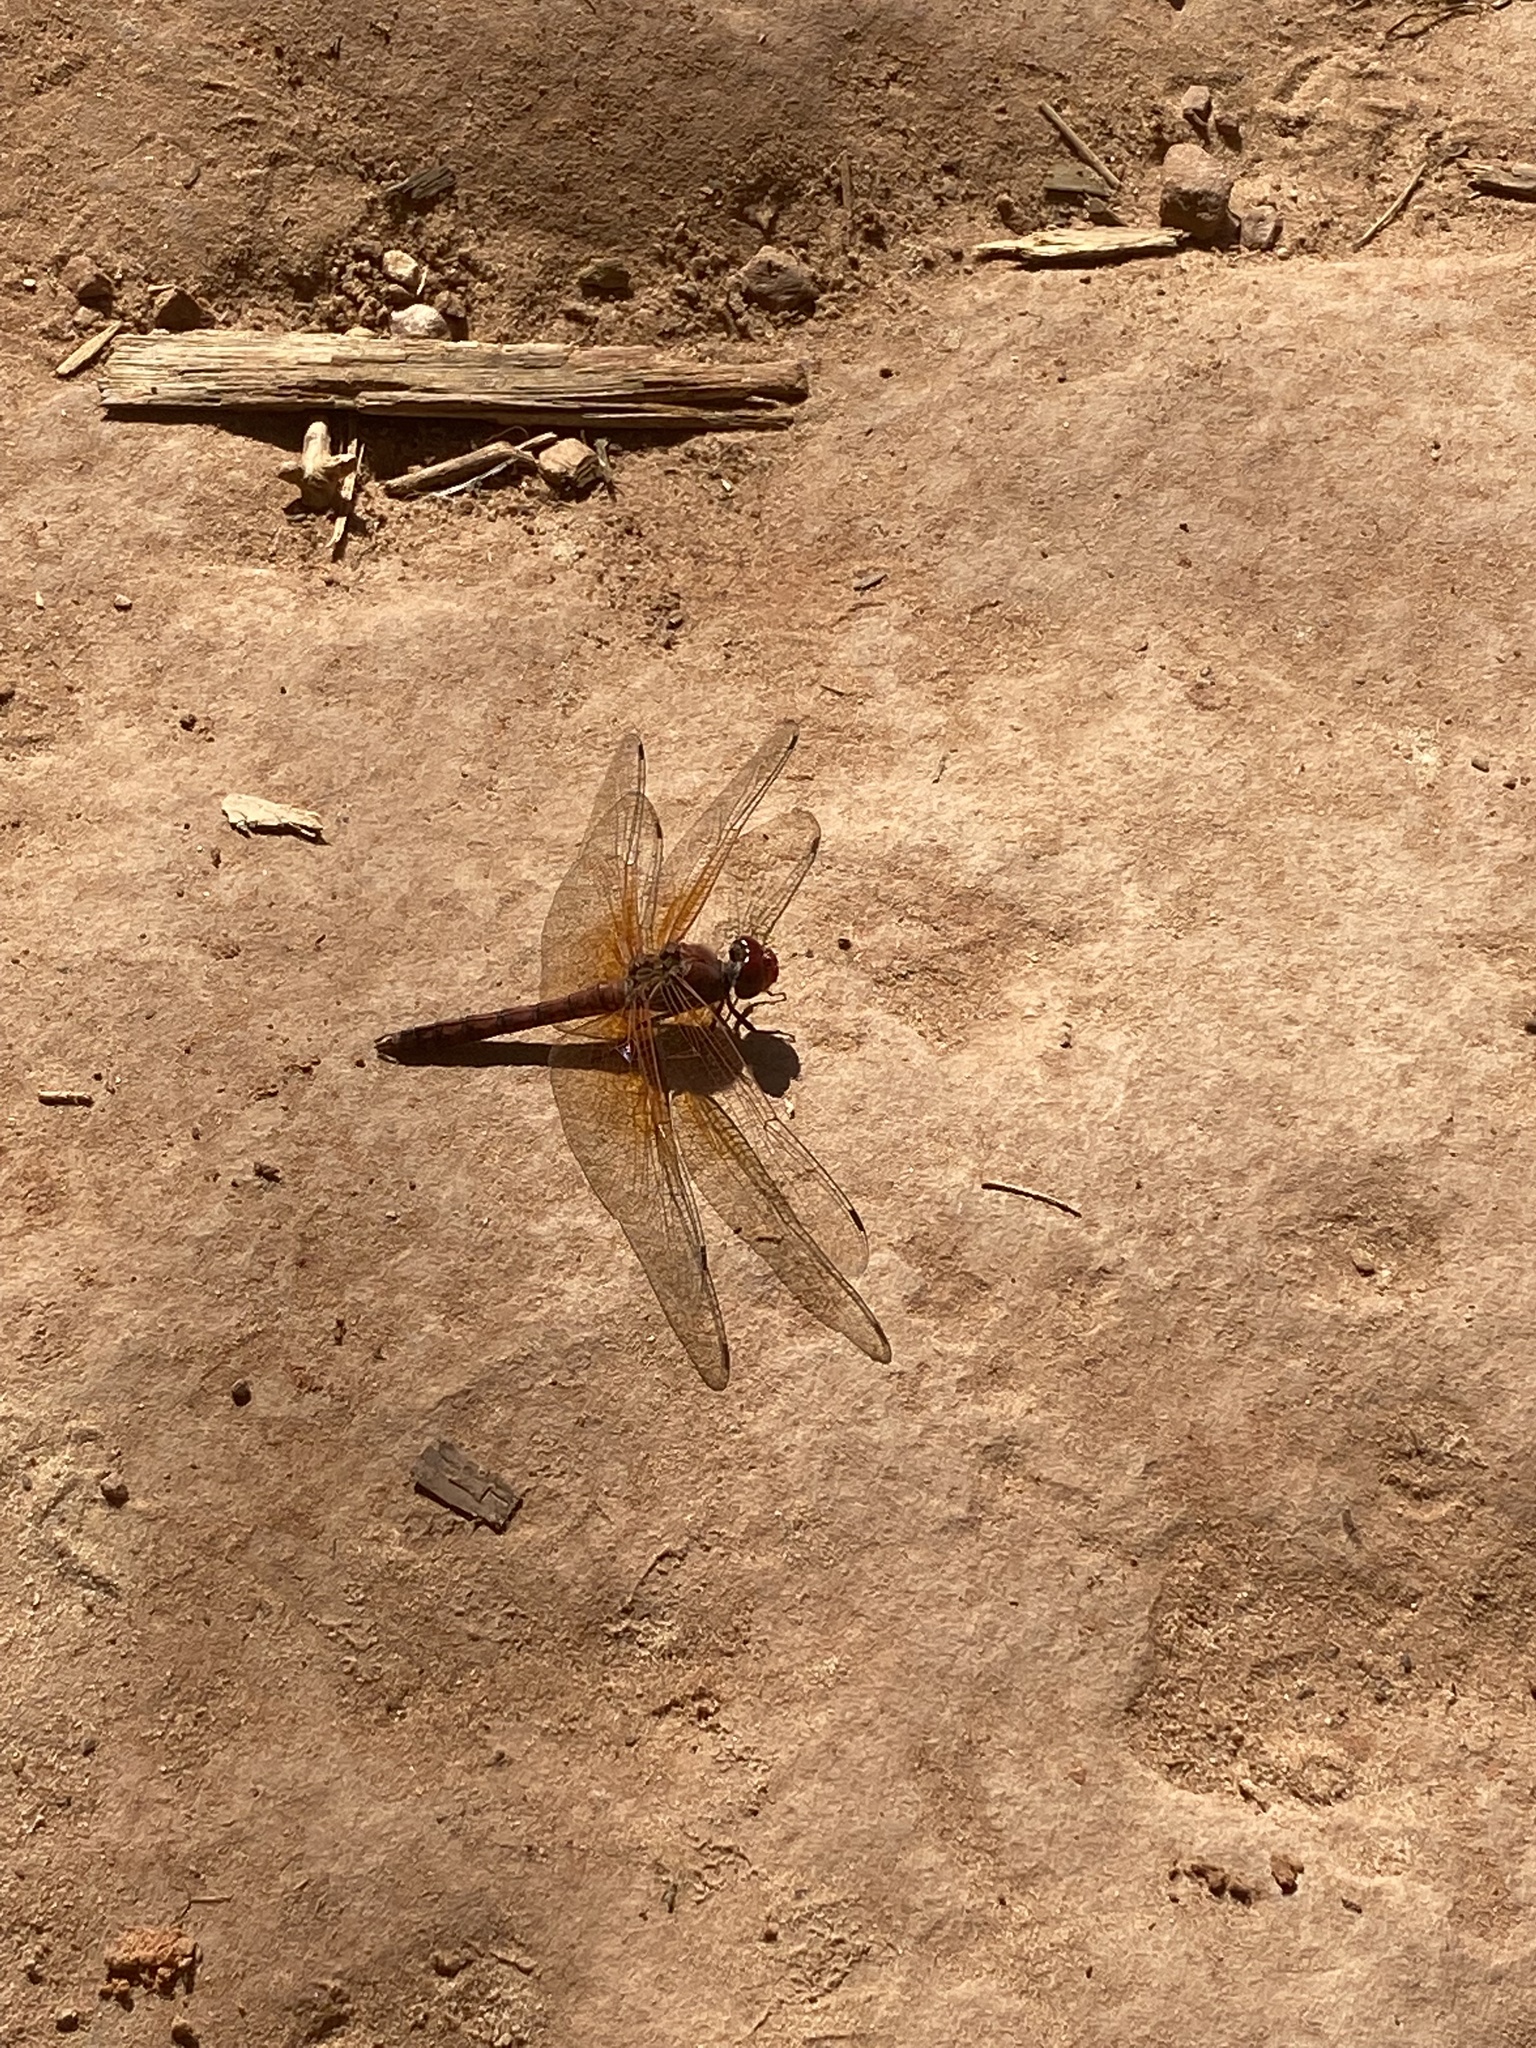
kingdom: Animalia
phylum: Arthropoda
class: Insecta
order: Odonata
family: Libellulidae
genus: Paltothemis
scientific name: Paltothemis lineatipes
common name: Red rock skimmer
